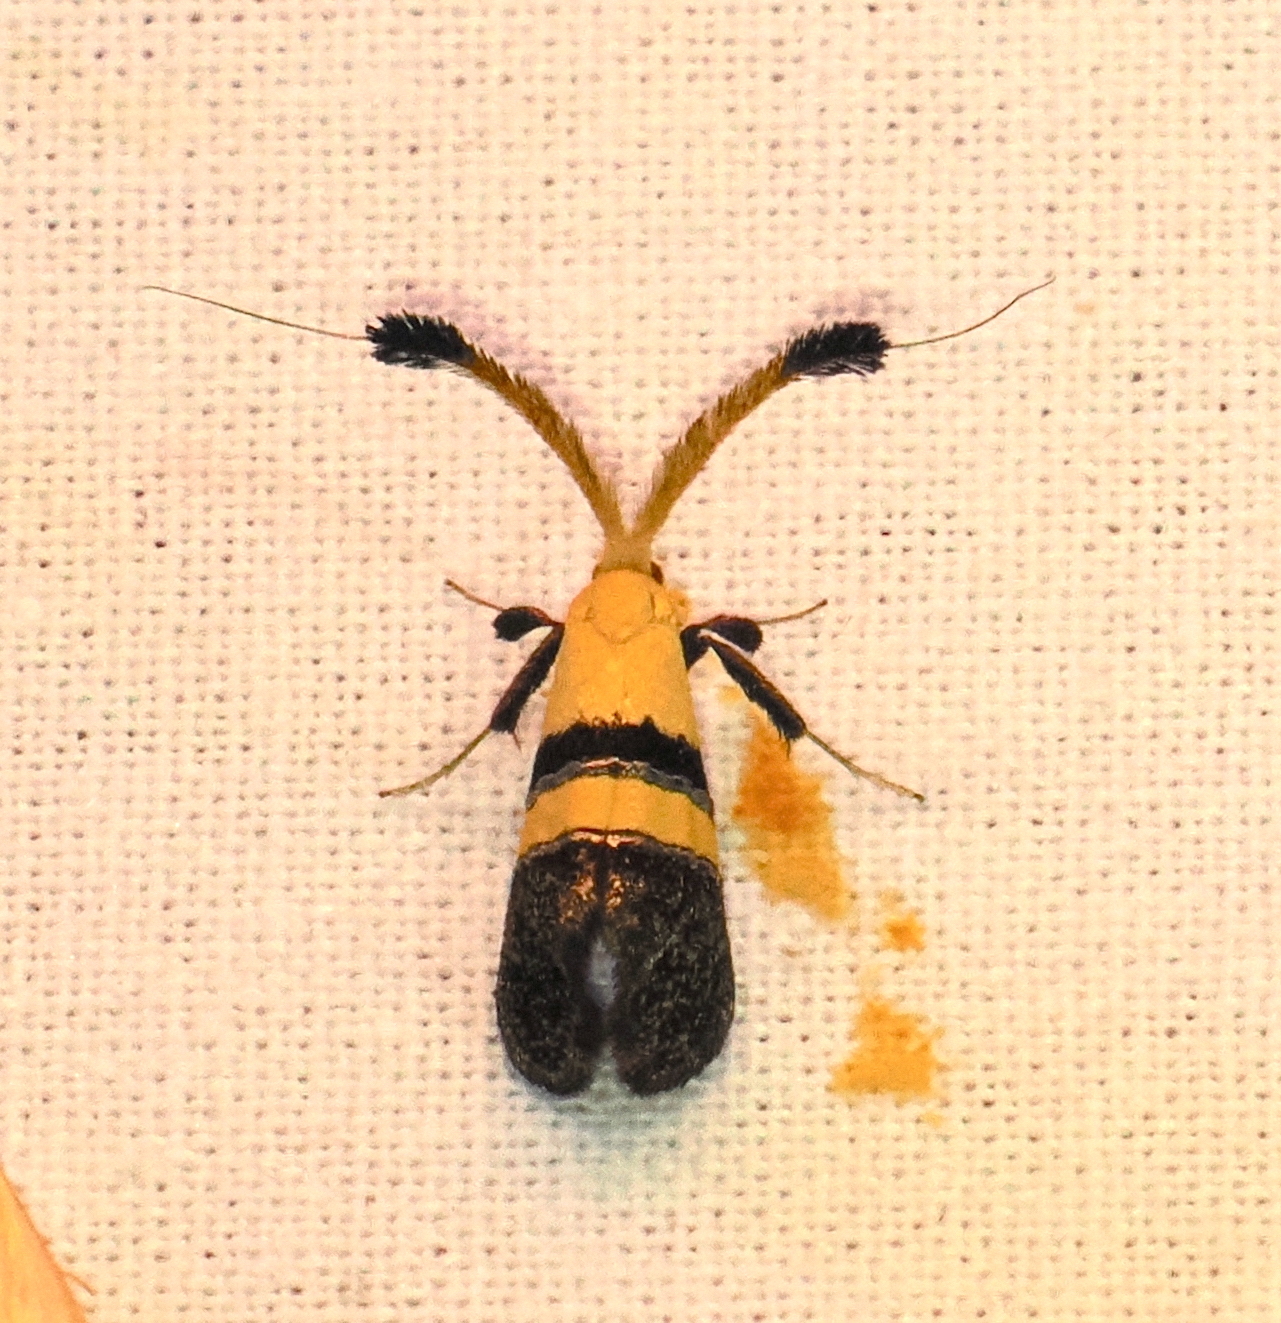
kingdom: Animalia
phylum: Arthropoda
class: Insecta
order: Lepidoptera
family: Adelidae
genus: Nemophora
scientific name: Nemophora decisella
